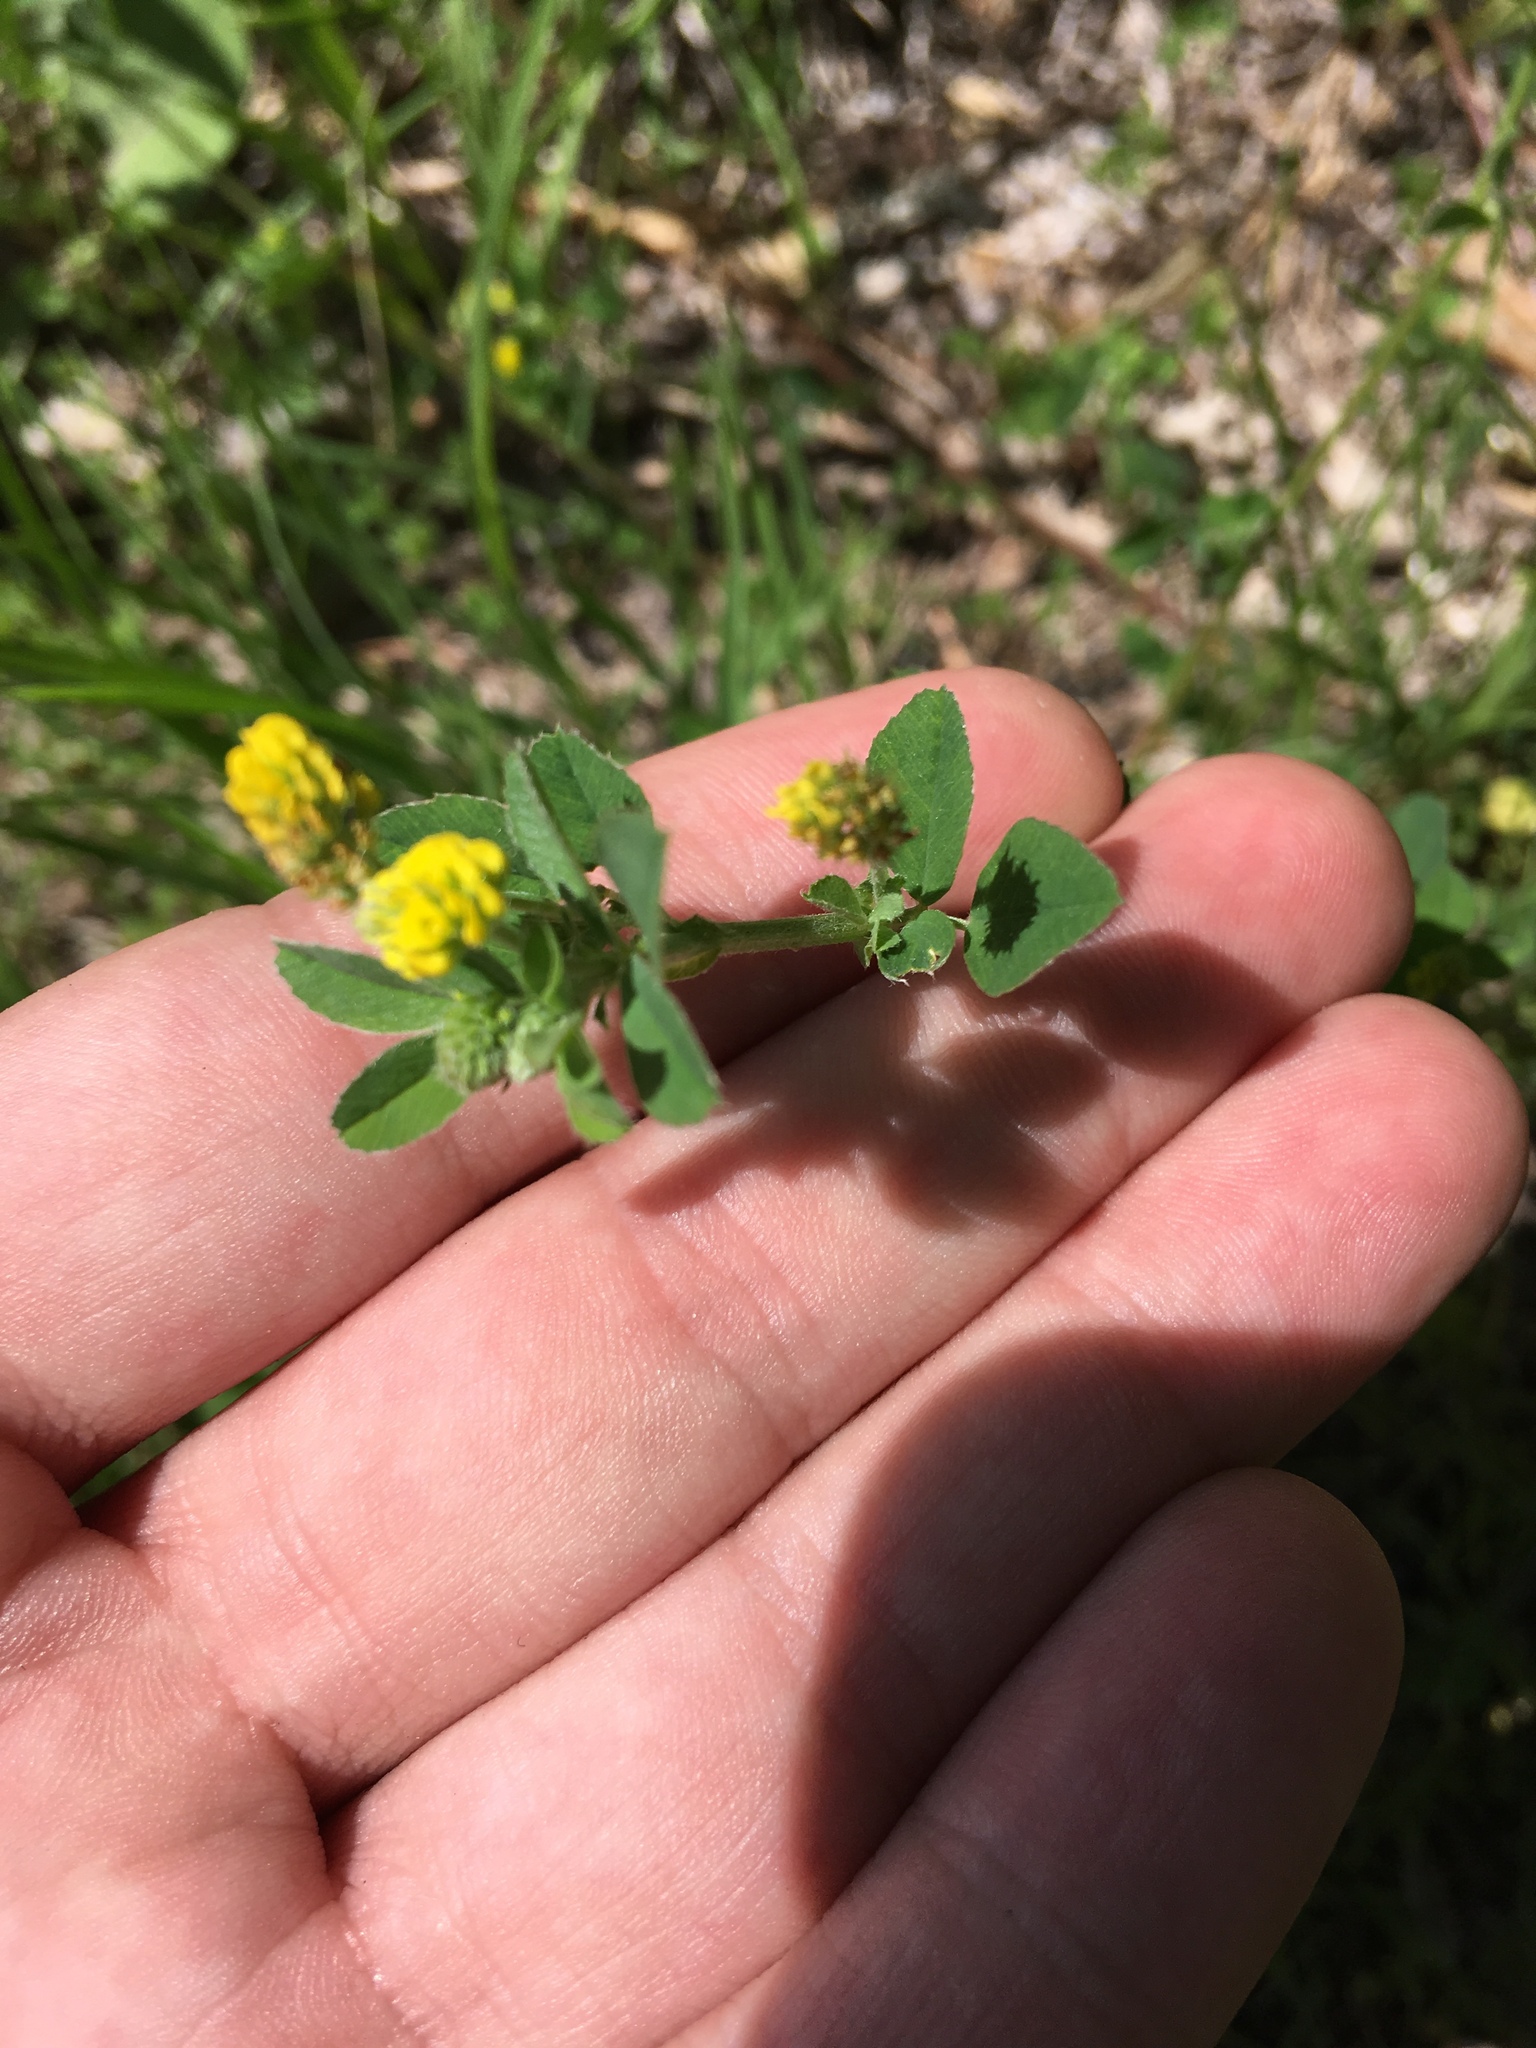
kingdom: Plantae
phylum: Tracheophyta
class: Magnoliopsida
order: Fabales
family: Fabaceae
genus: Medicago
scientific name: Medicago lupulina
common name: Black medick
